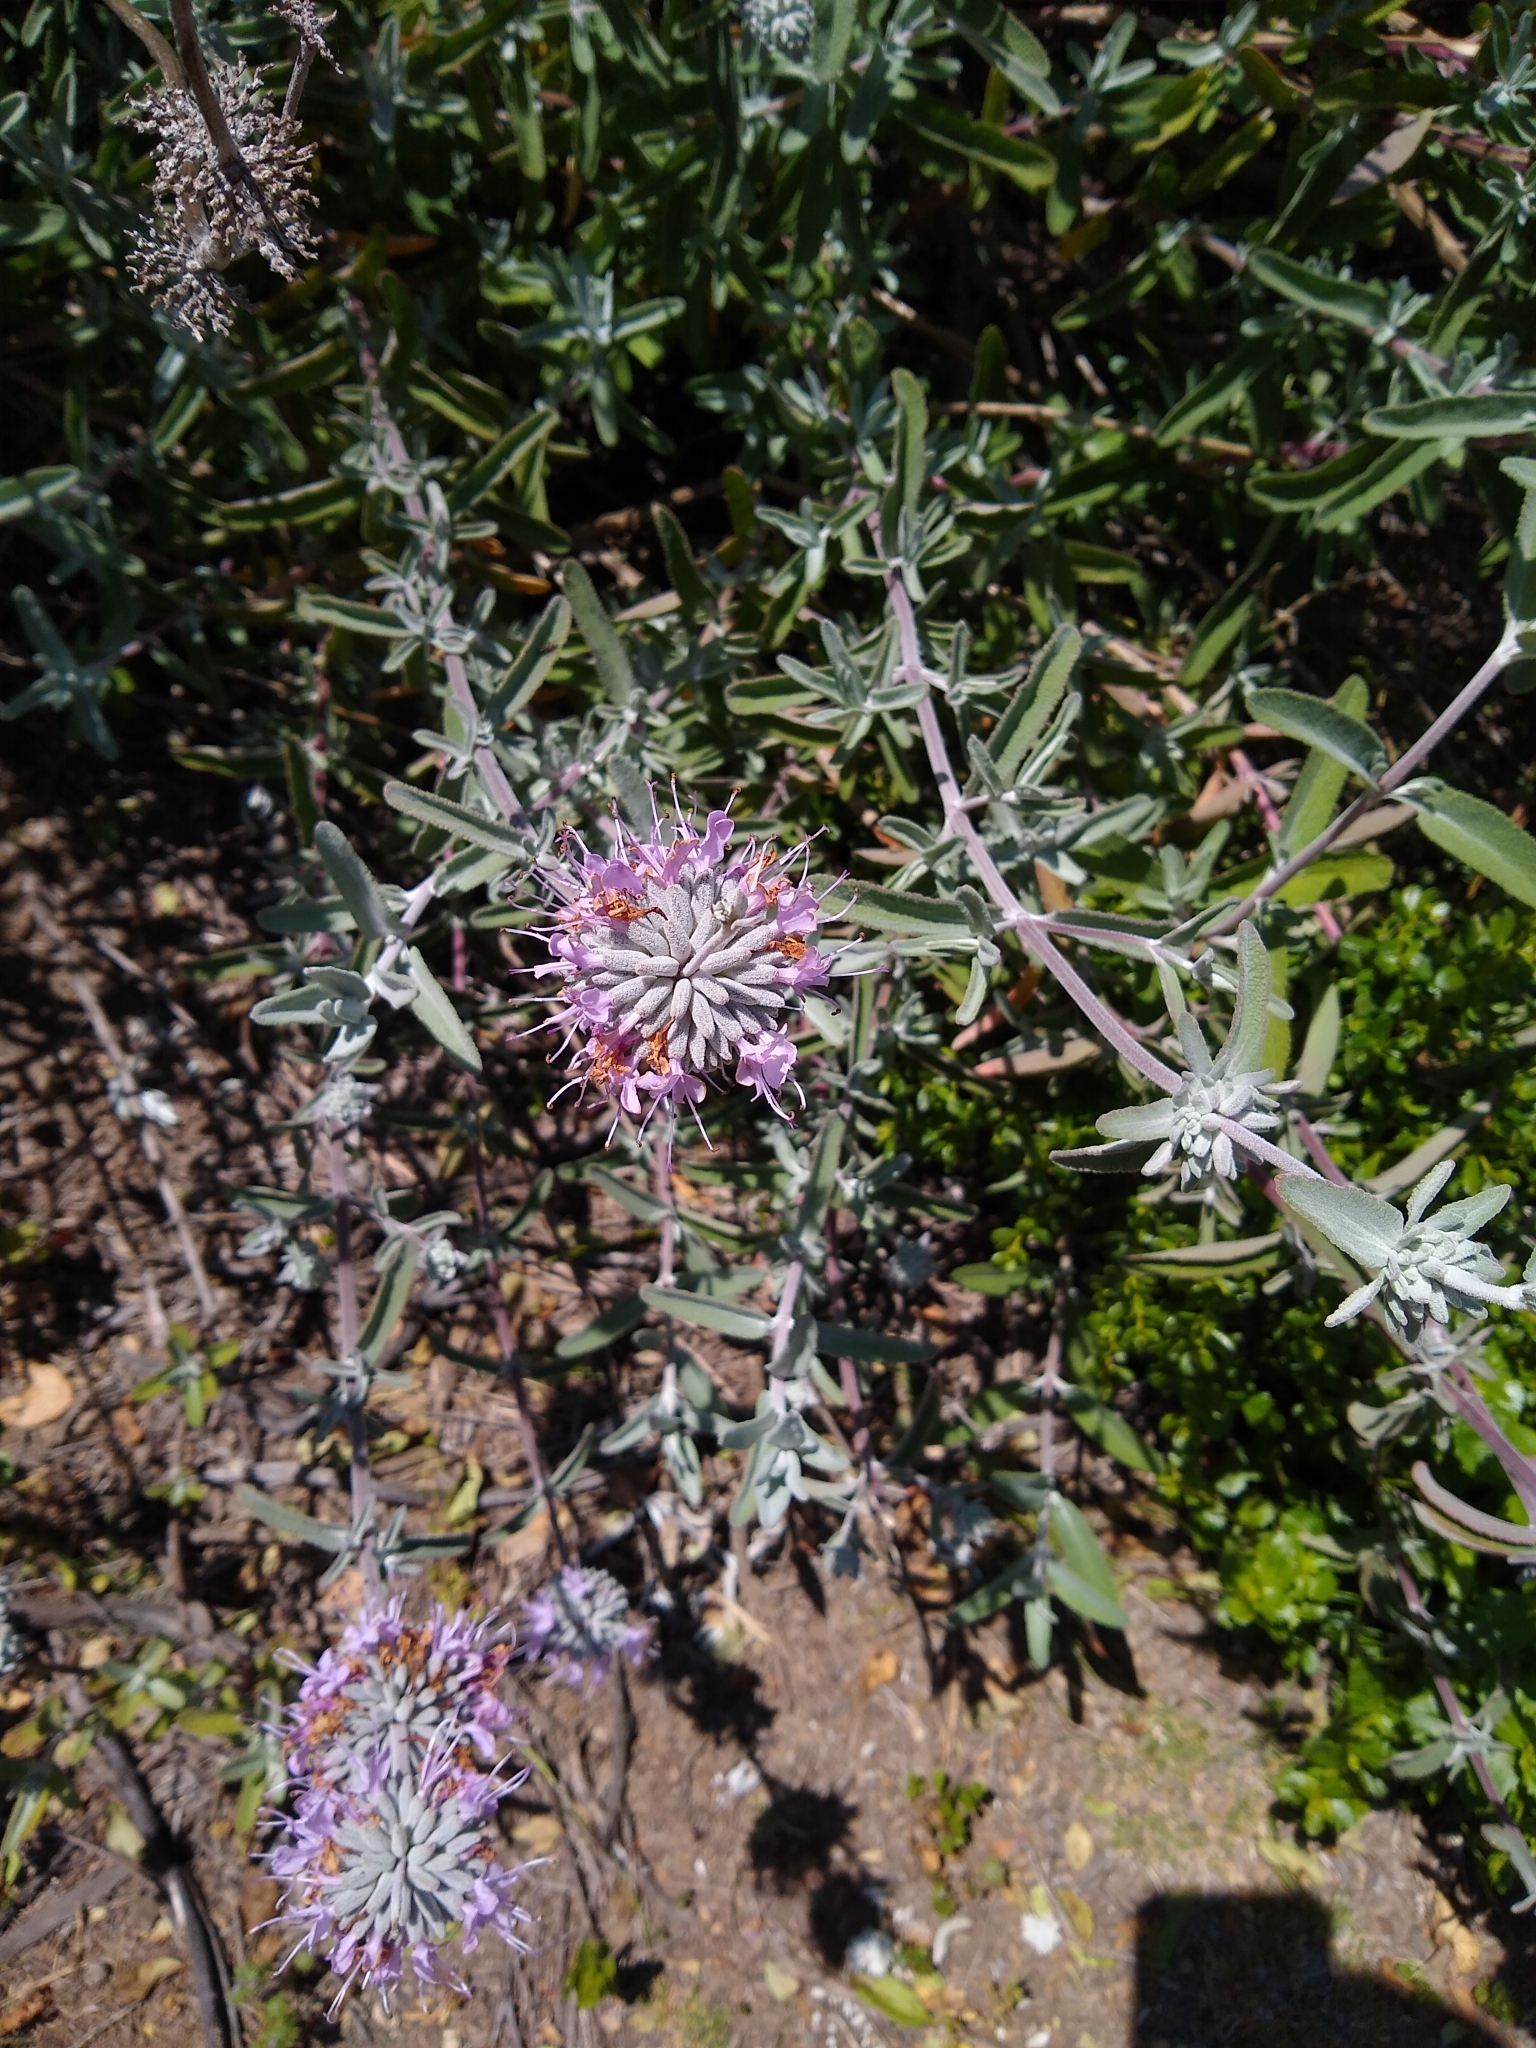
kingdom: Plantae
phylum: Tracheophyta
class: Magnoliopsida
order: Lamiales
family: Lamiaceae
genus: Salvia
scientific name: Salvia leucophylla
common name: Purple sage
